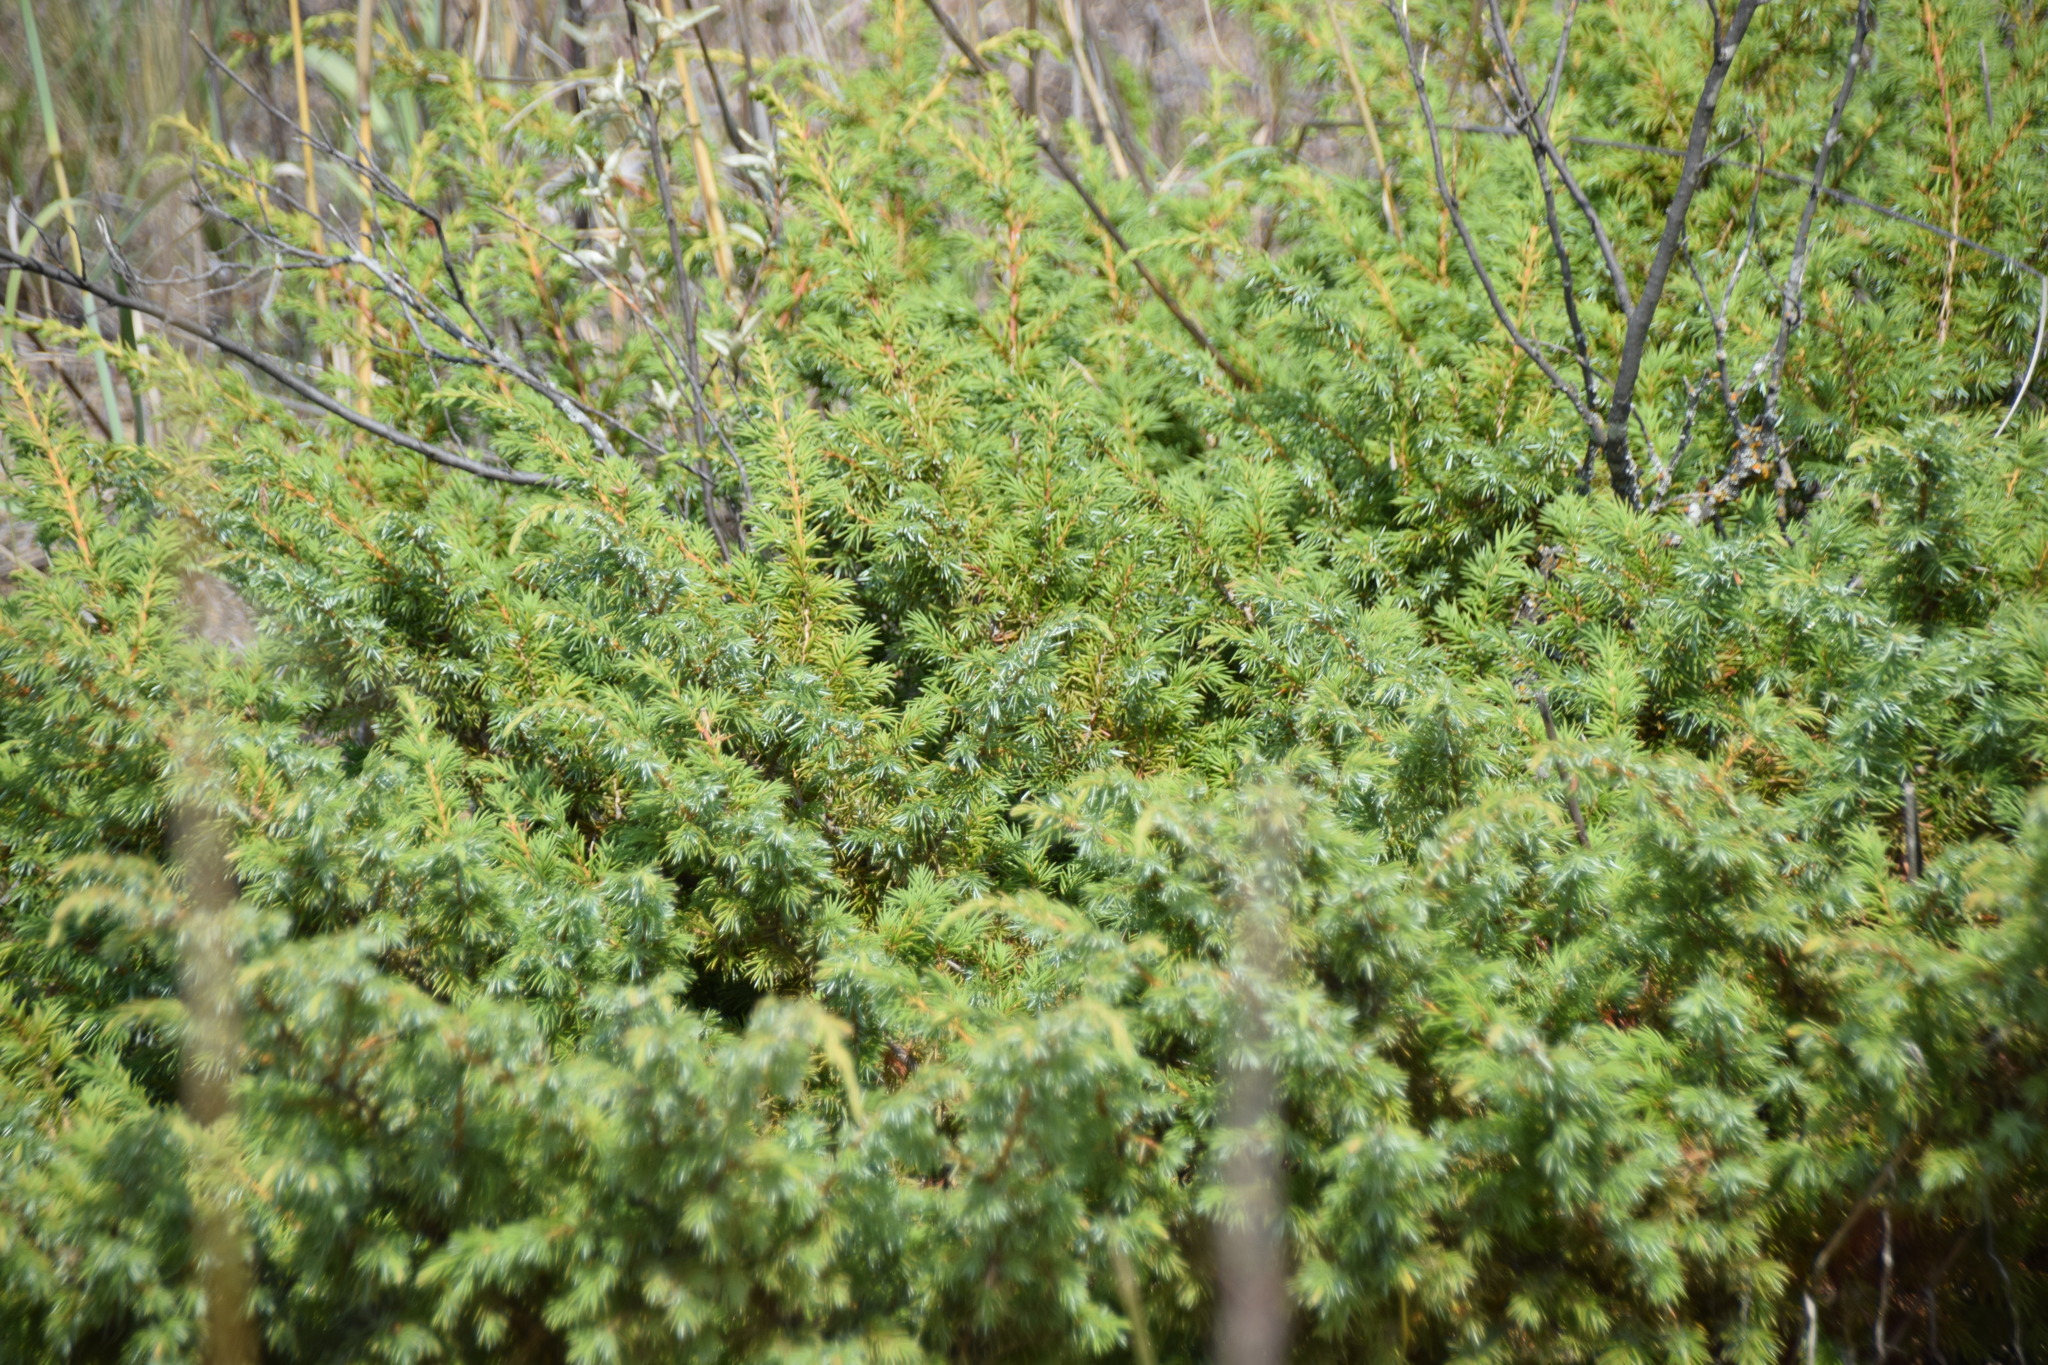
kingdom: Plantae
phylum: Tracheophyta
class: Pinopsida
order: Pinales
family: Cupressaceae
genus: Juniperus
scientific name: Juniperus communis
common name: Common juniper
